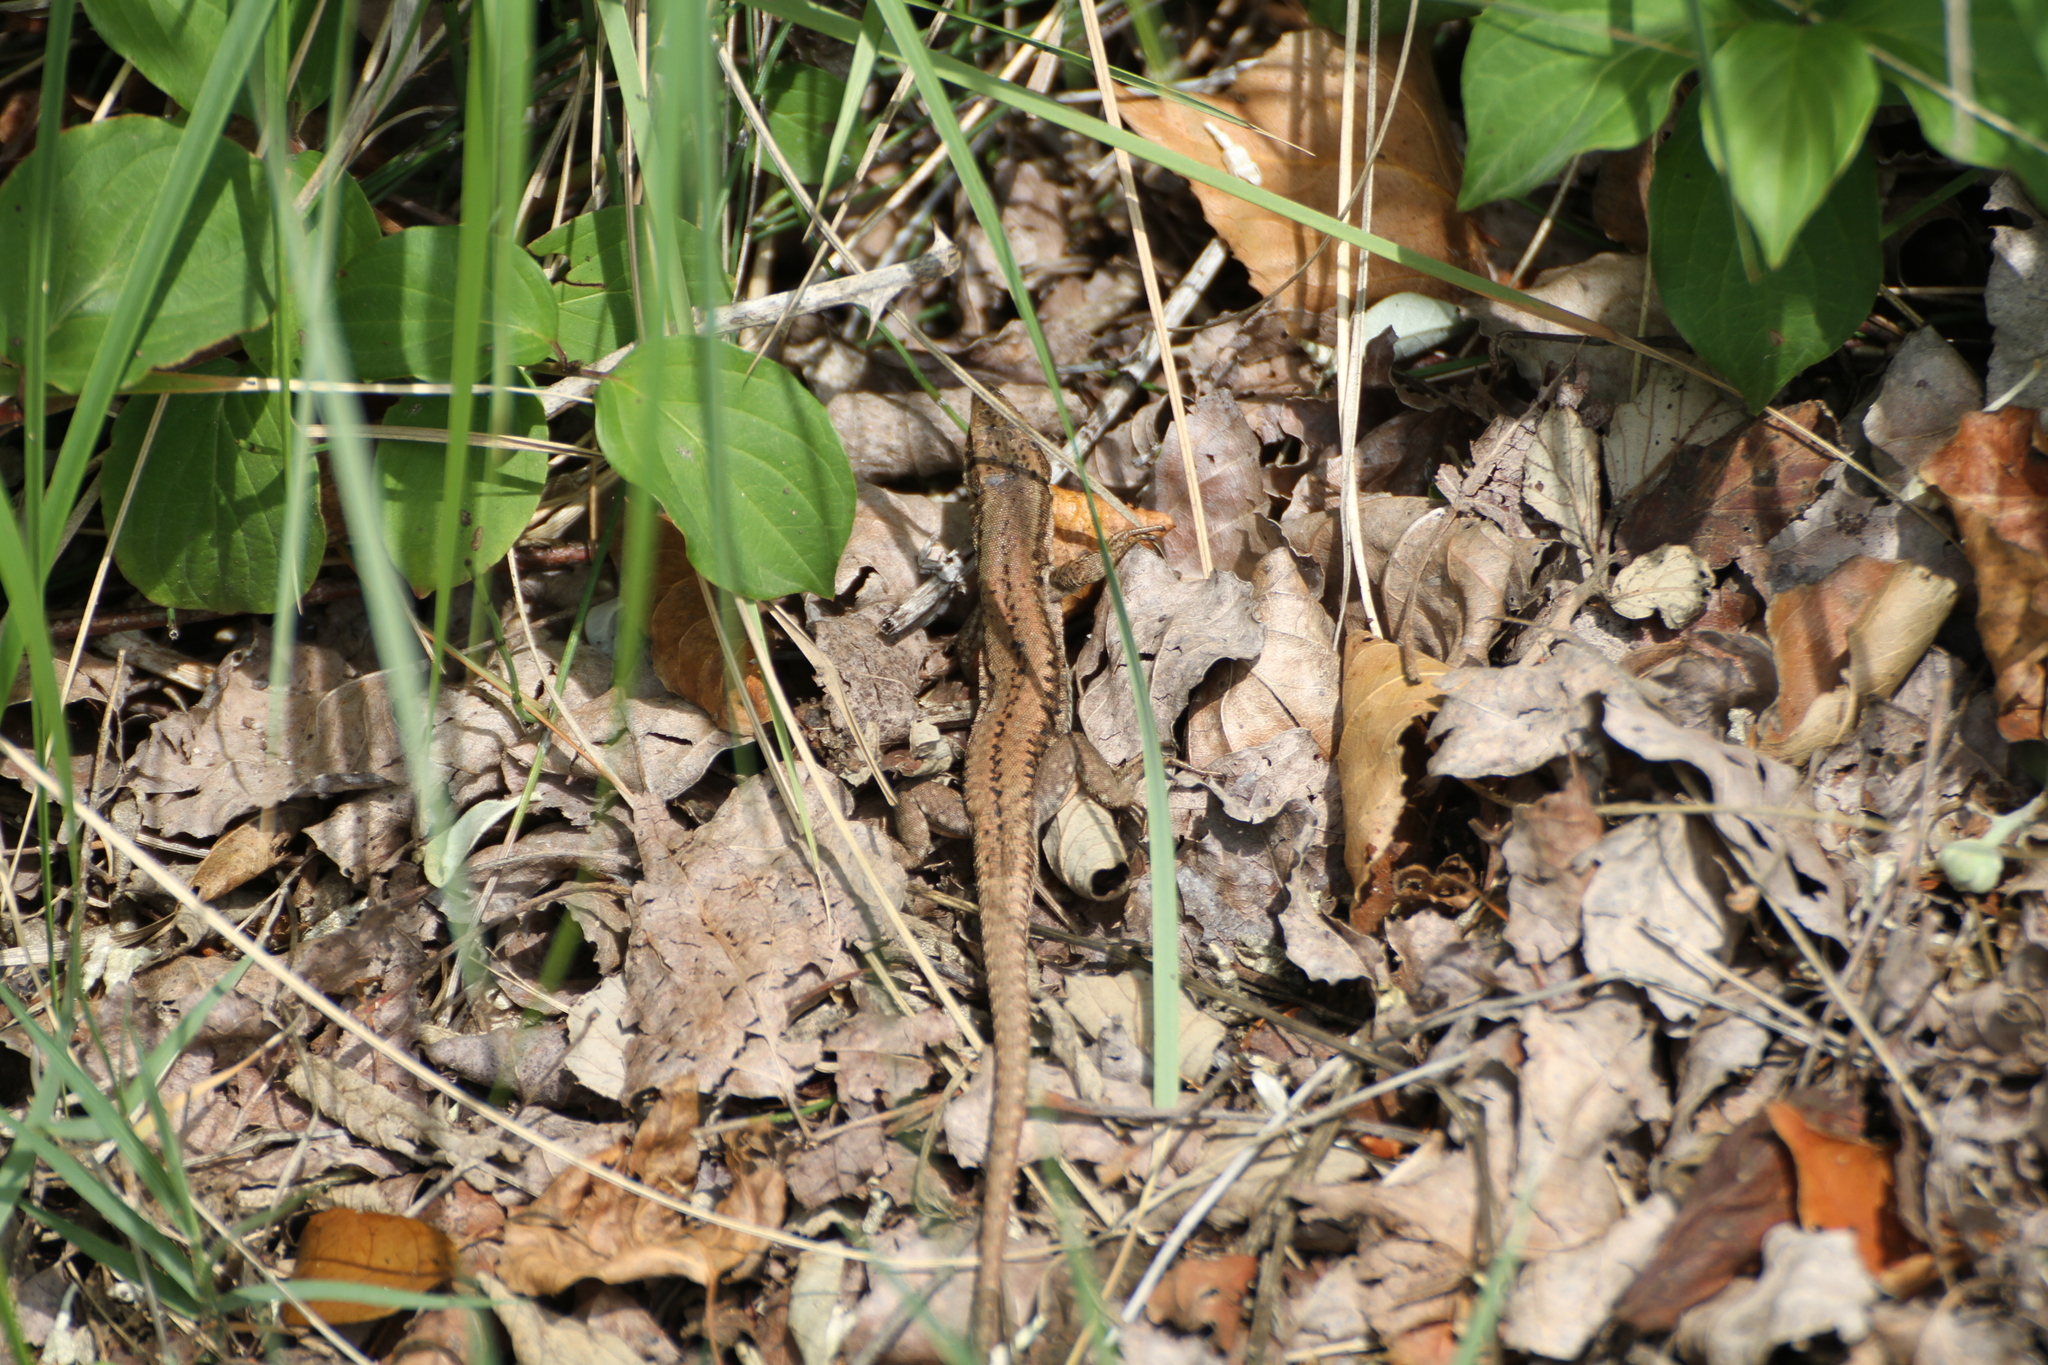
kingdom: Animalia
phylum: Chordata
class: Squamata
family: Lacertidae
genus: Podarcis
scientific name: Podarcis muralis
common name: Common wall lizard
